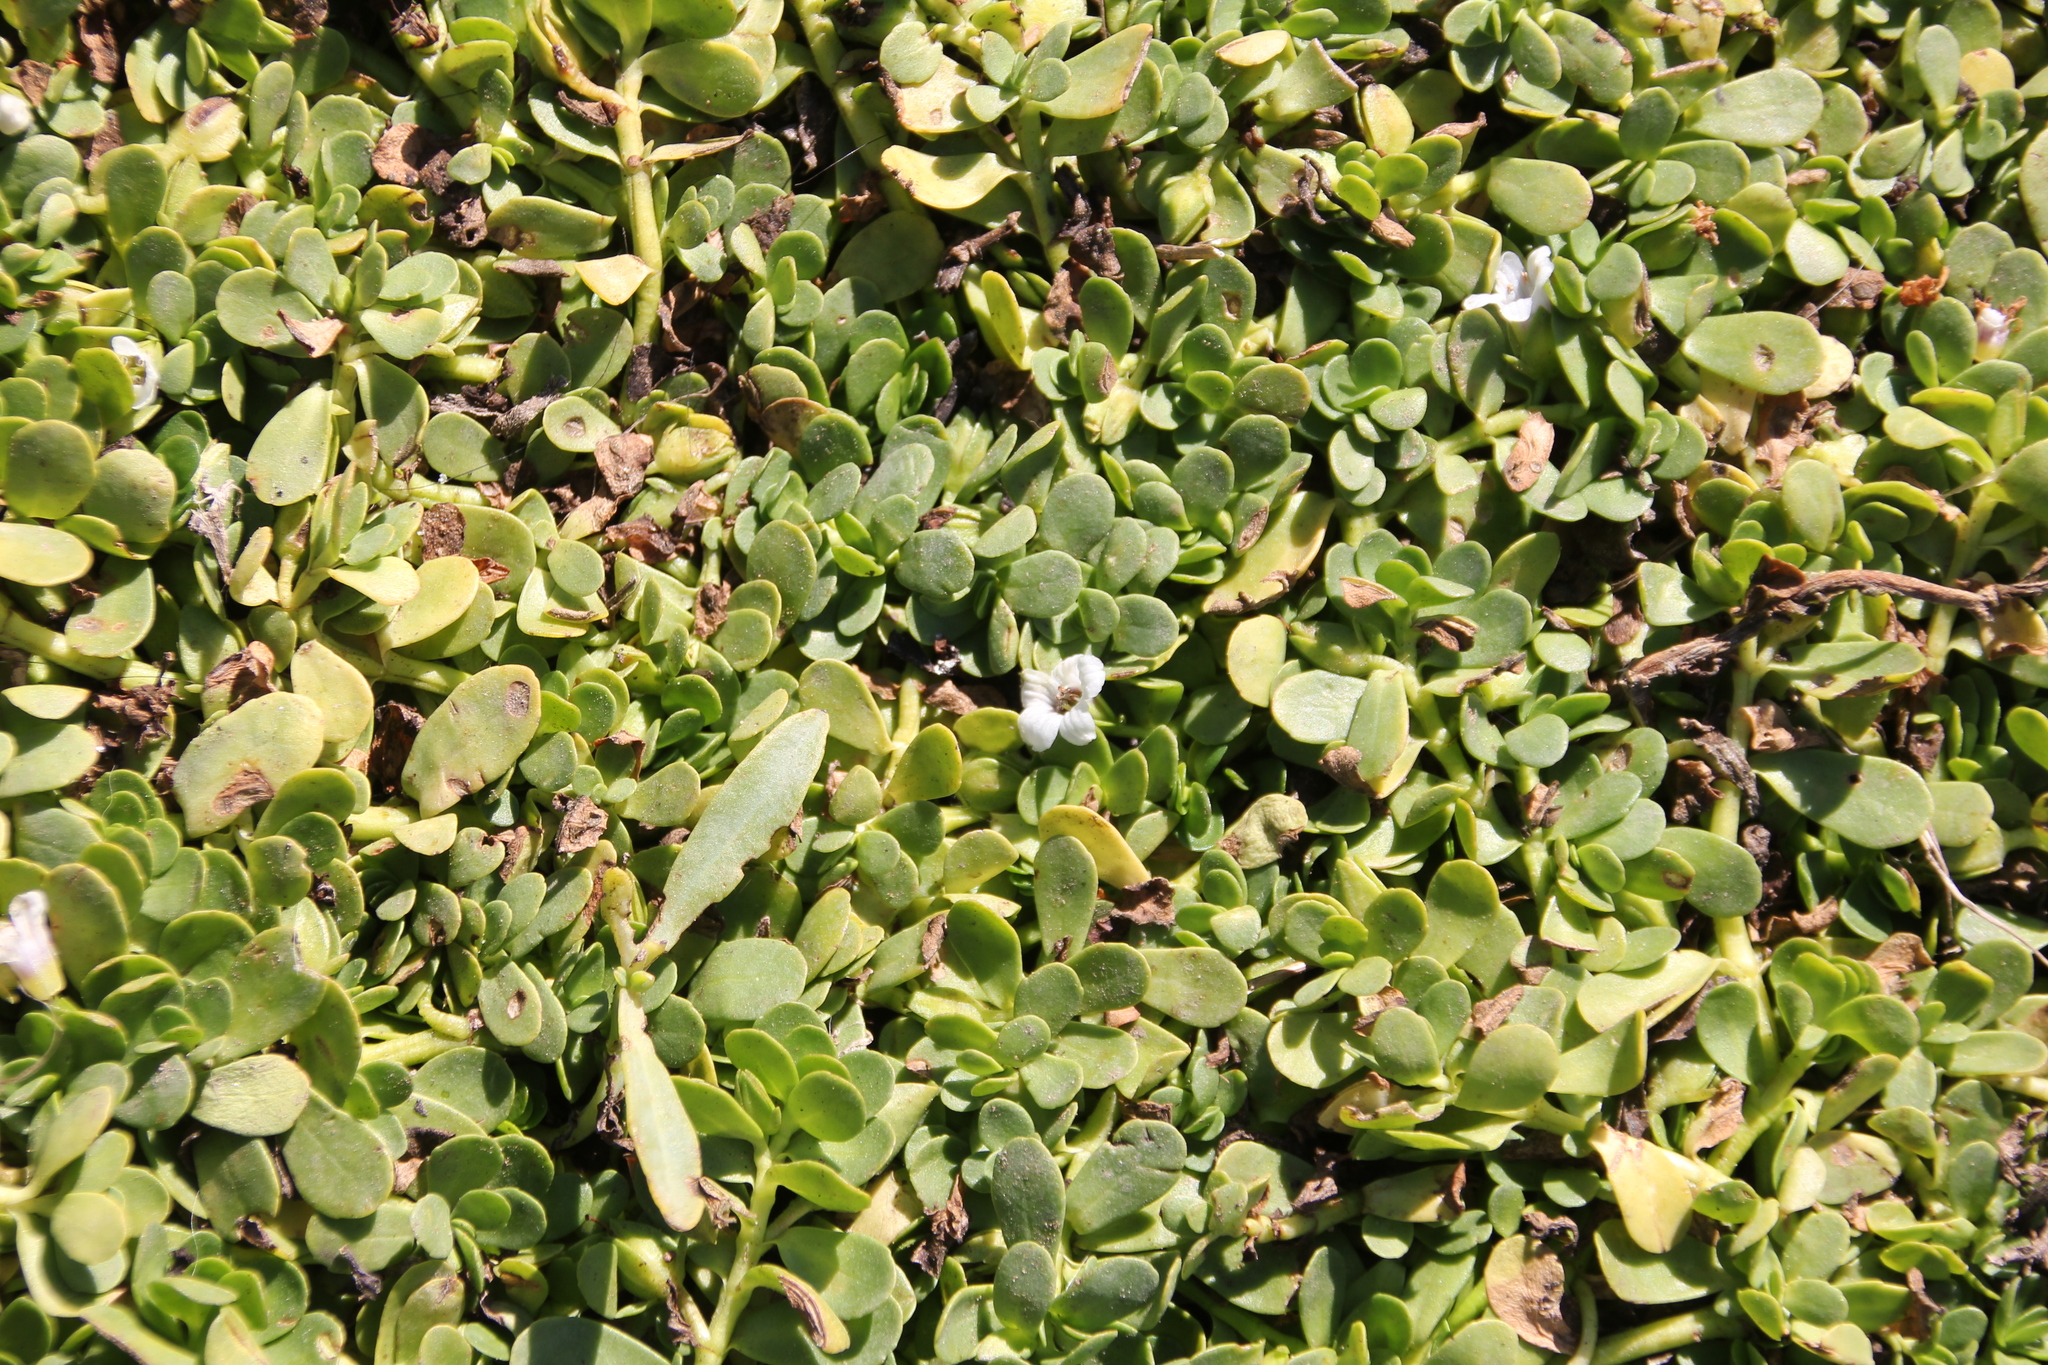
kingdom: Plantae
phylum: Tracheophyta
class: Magnoliopsida
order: Lamiales
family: Plantaginaceae
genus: Bacopa
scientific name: Bacopa monnieri
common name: Indian-pennywort
